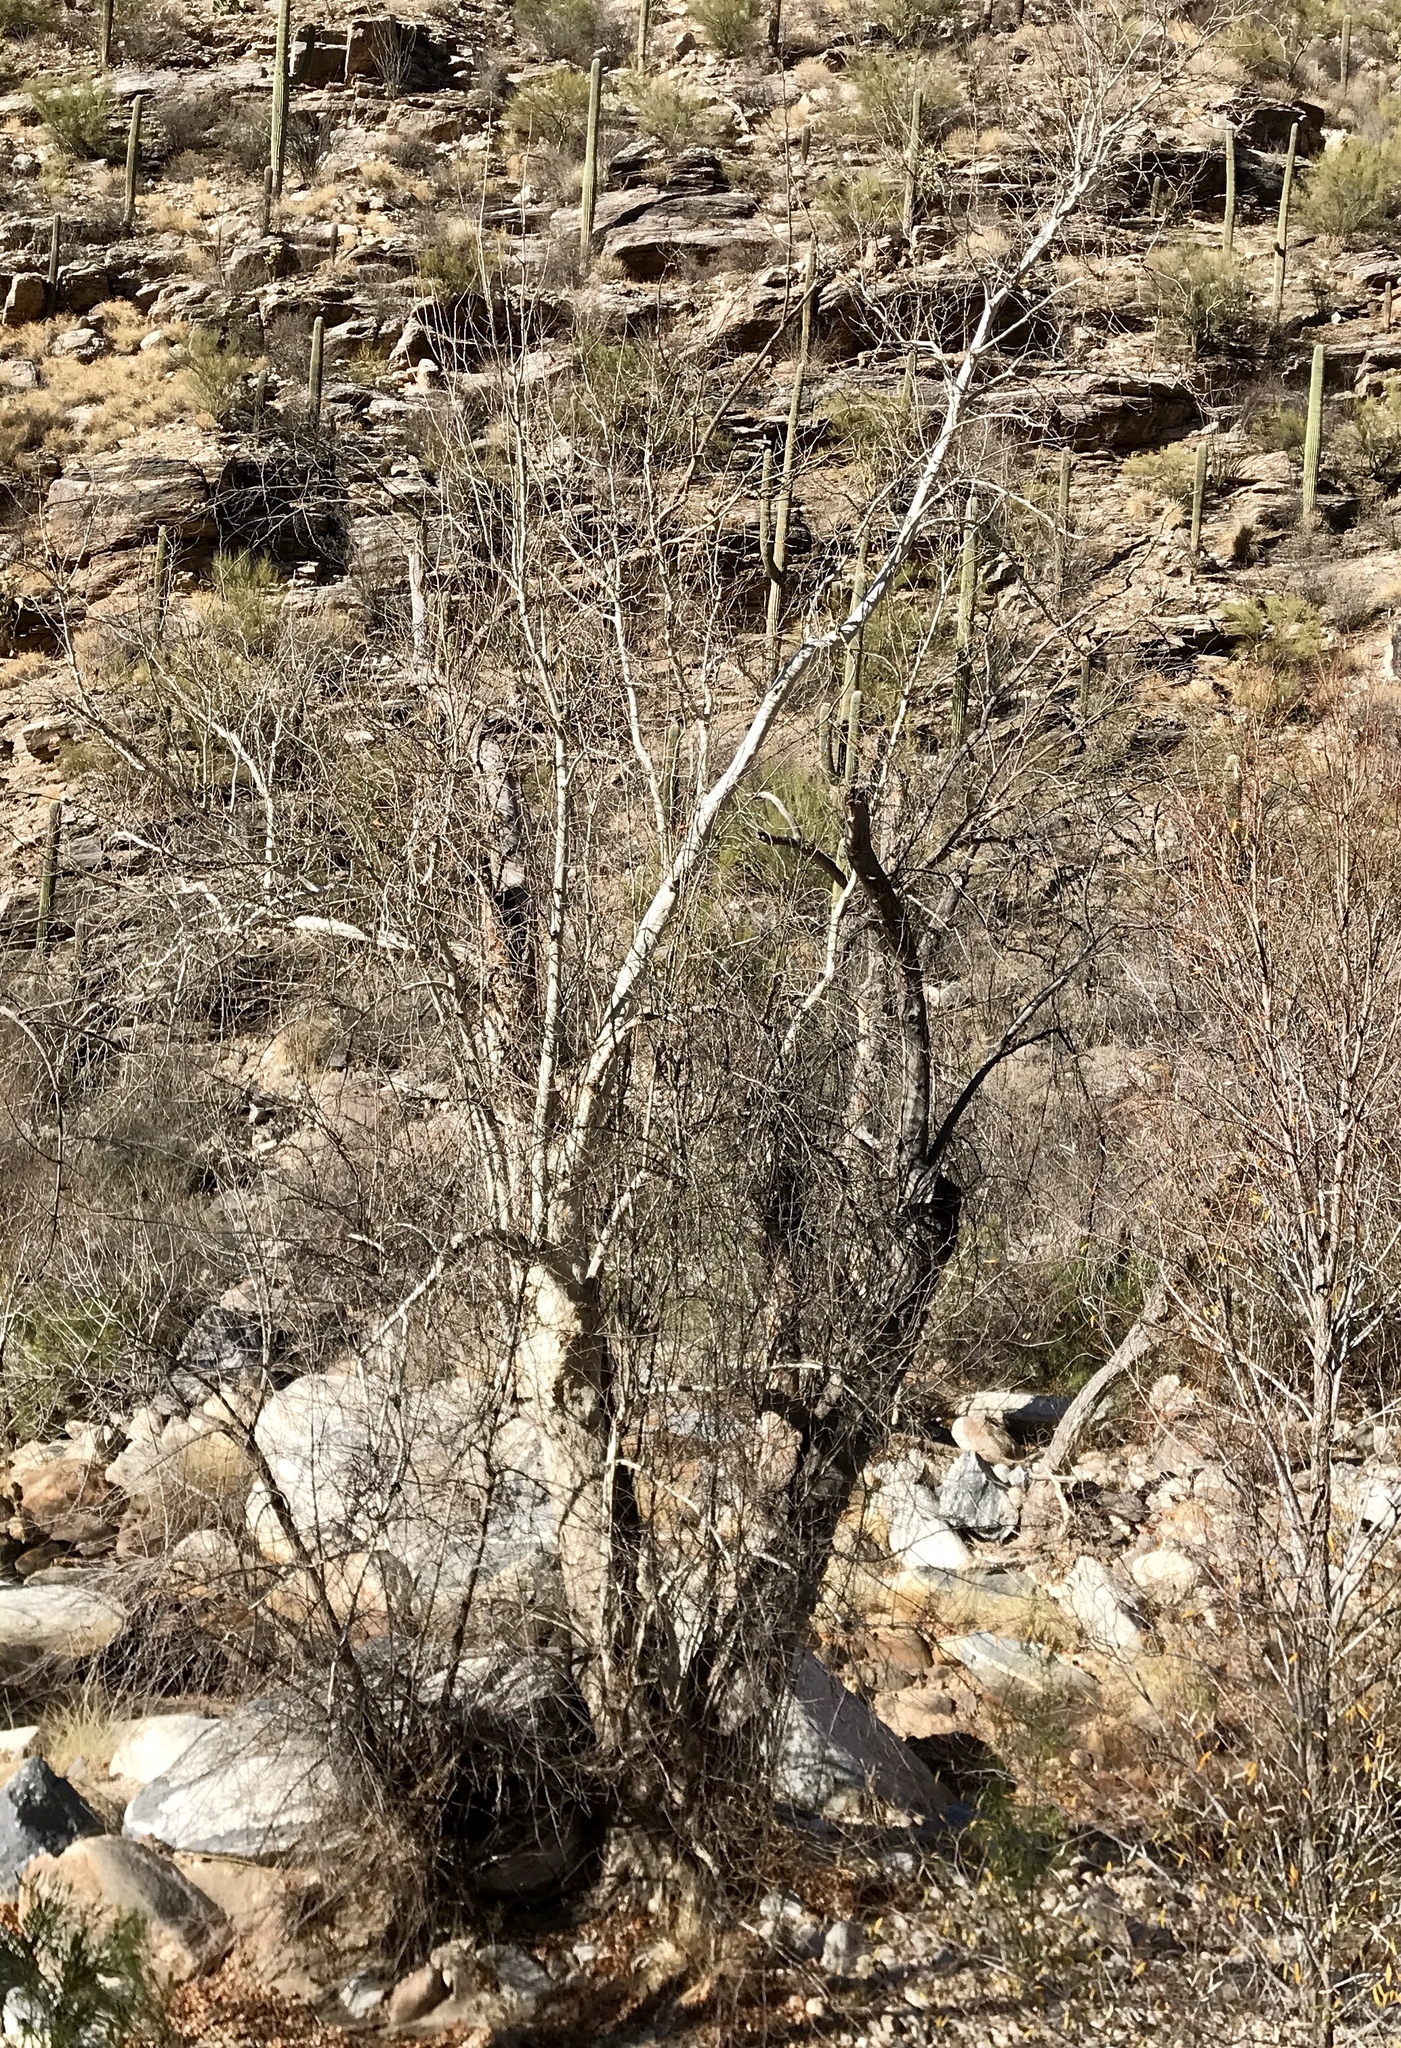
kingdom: Plantae
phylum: Tracheophyta
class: Magnoliopsida
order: Proteales
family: Platanaceae
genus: Platanus
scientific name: Platanus wrightii
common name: Arizona sycamore
